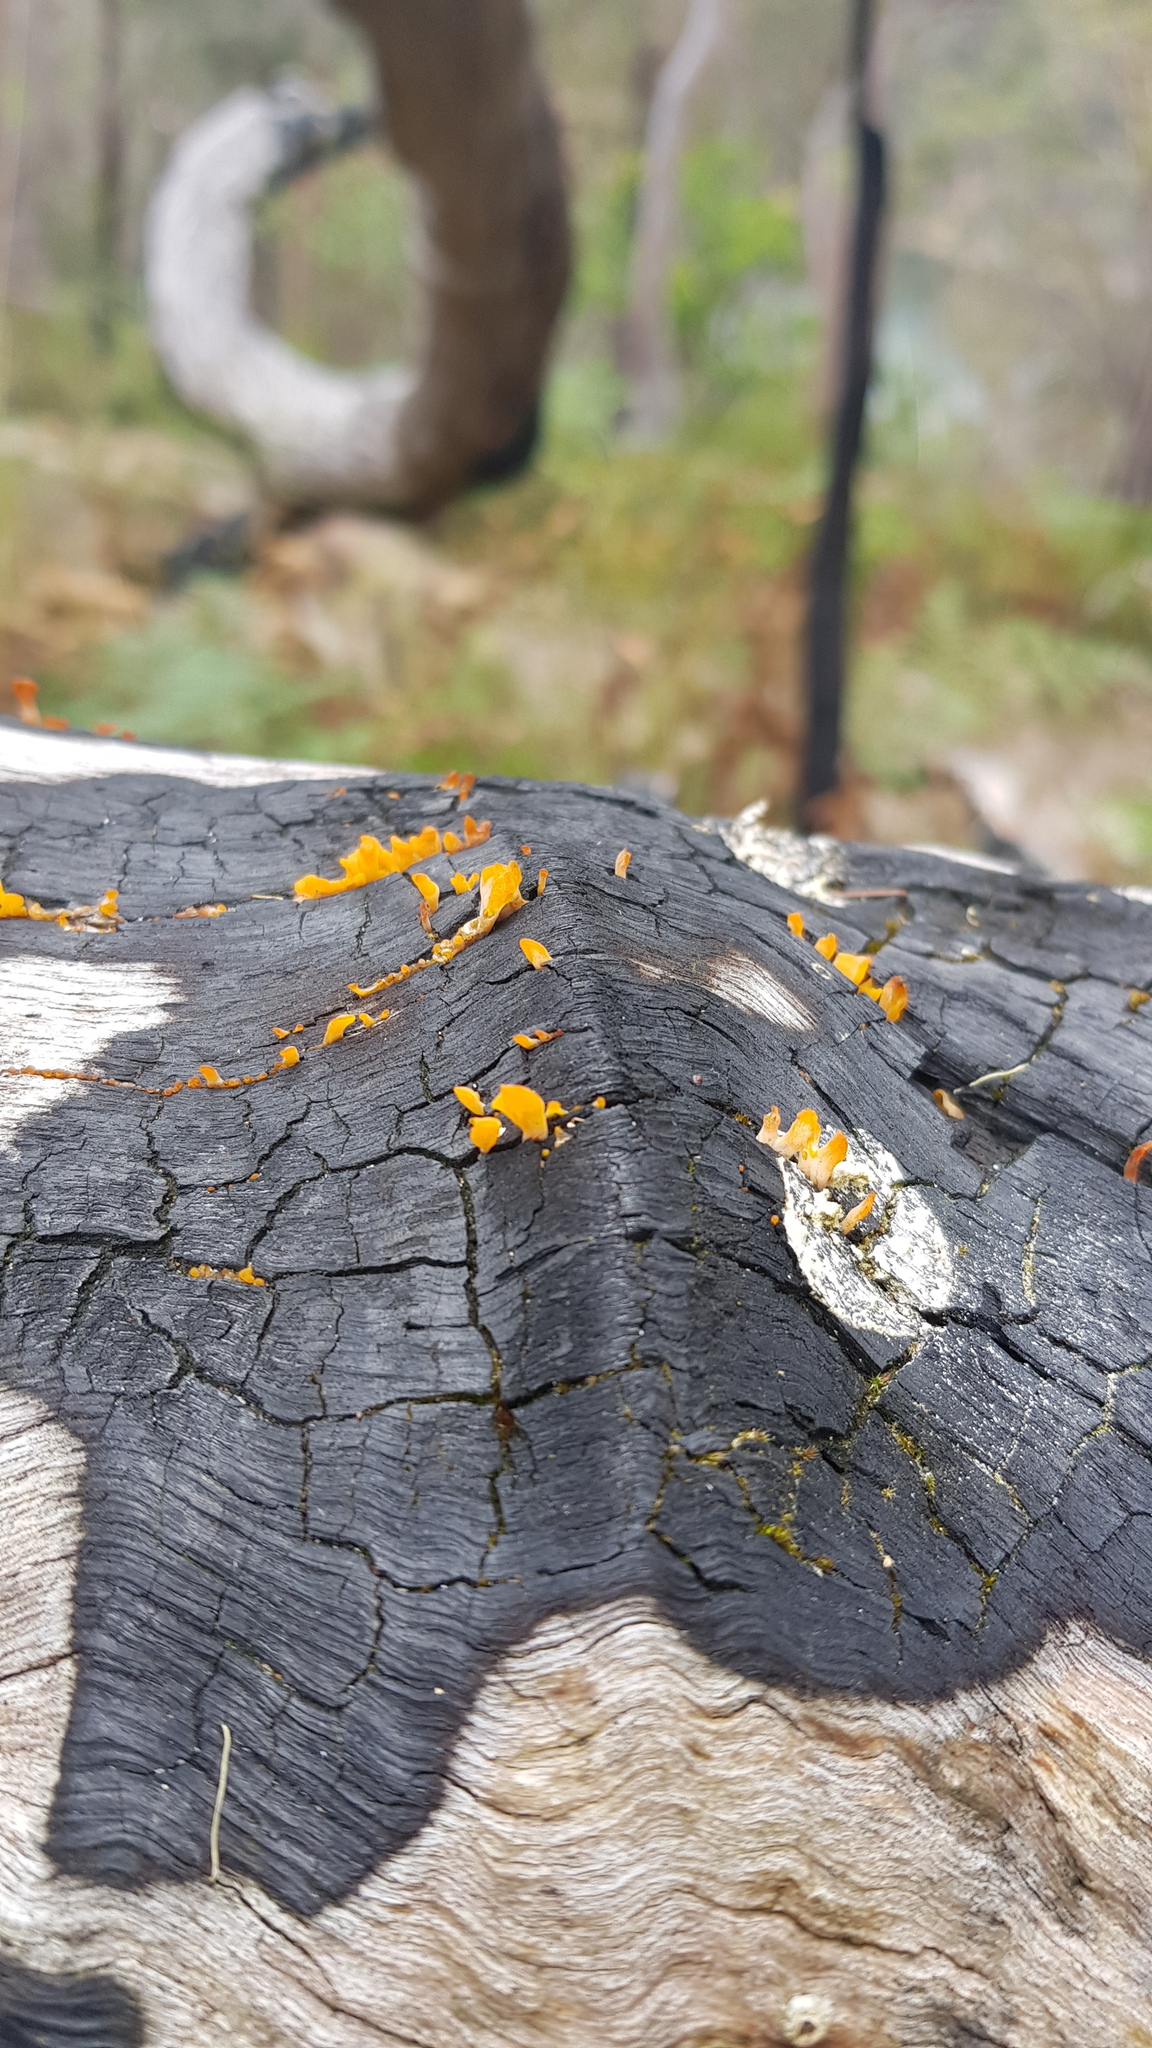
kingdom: Fungi
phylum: Basidiomycota
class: Dacrymycetes
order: Dacrymycetales
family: Dacrymycetaceae
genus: Dacrymyces
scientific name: Dacrymyces spathularius
